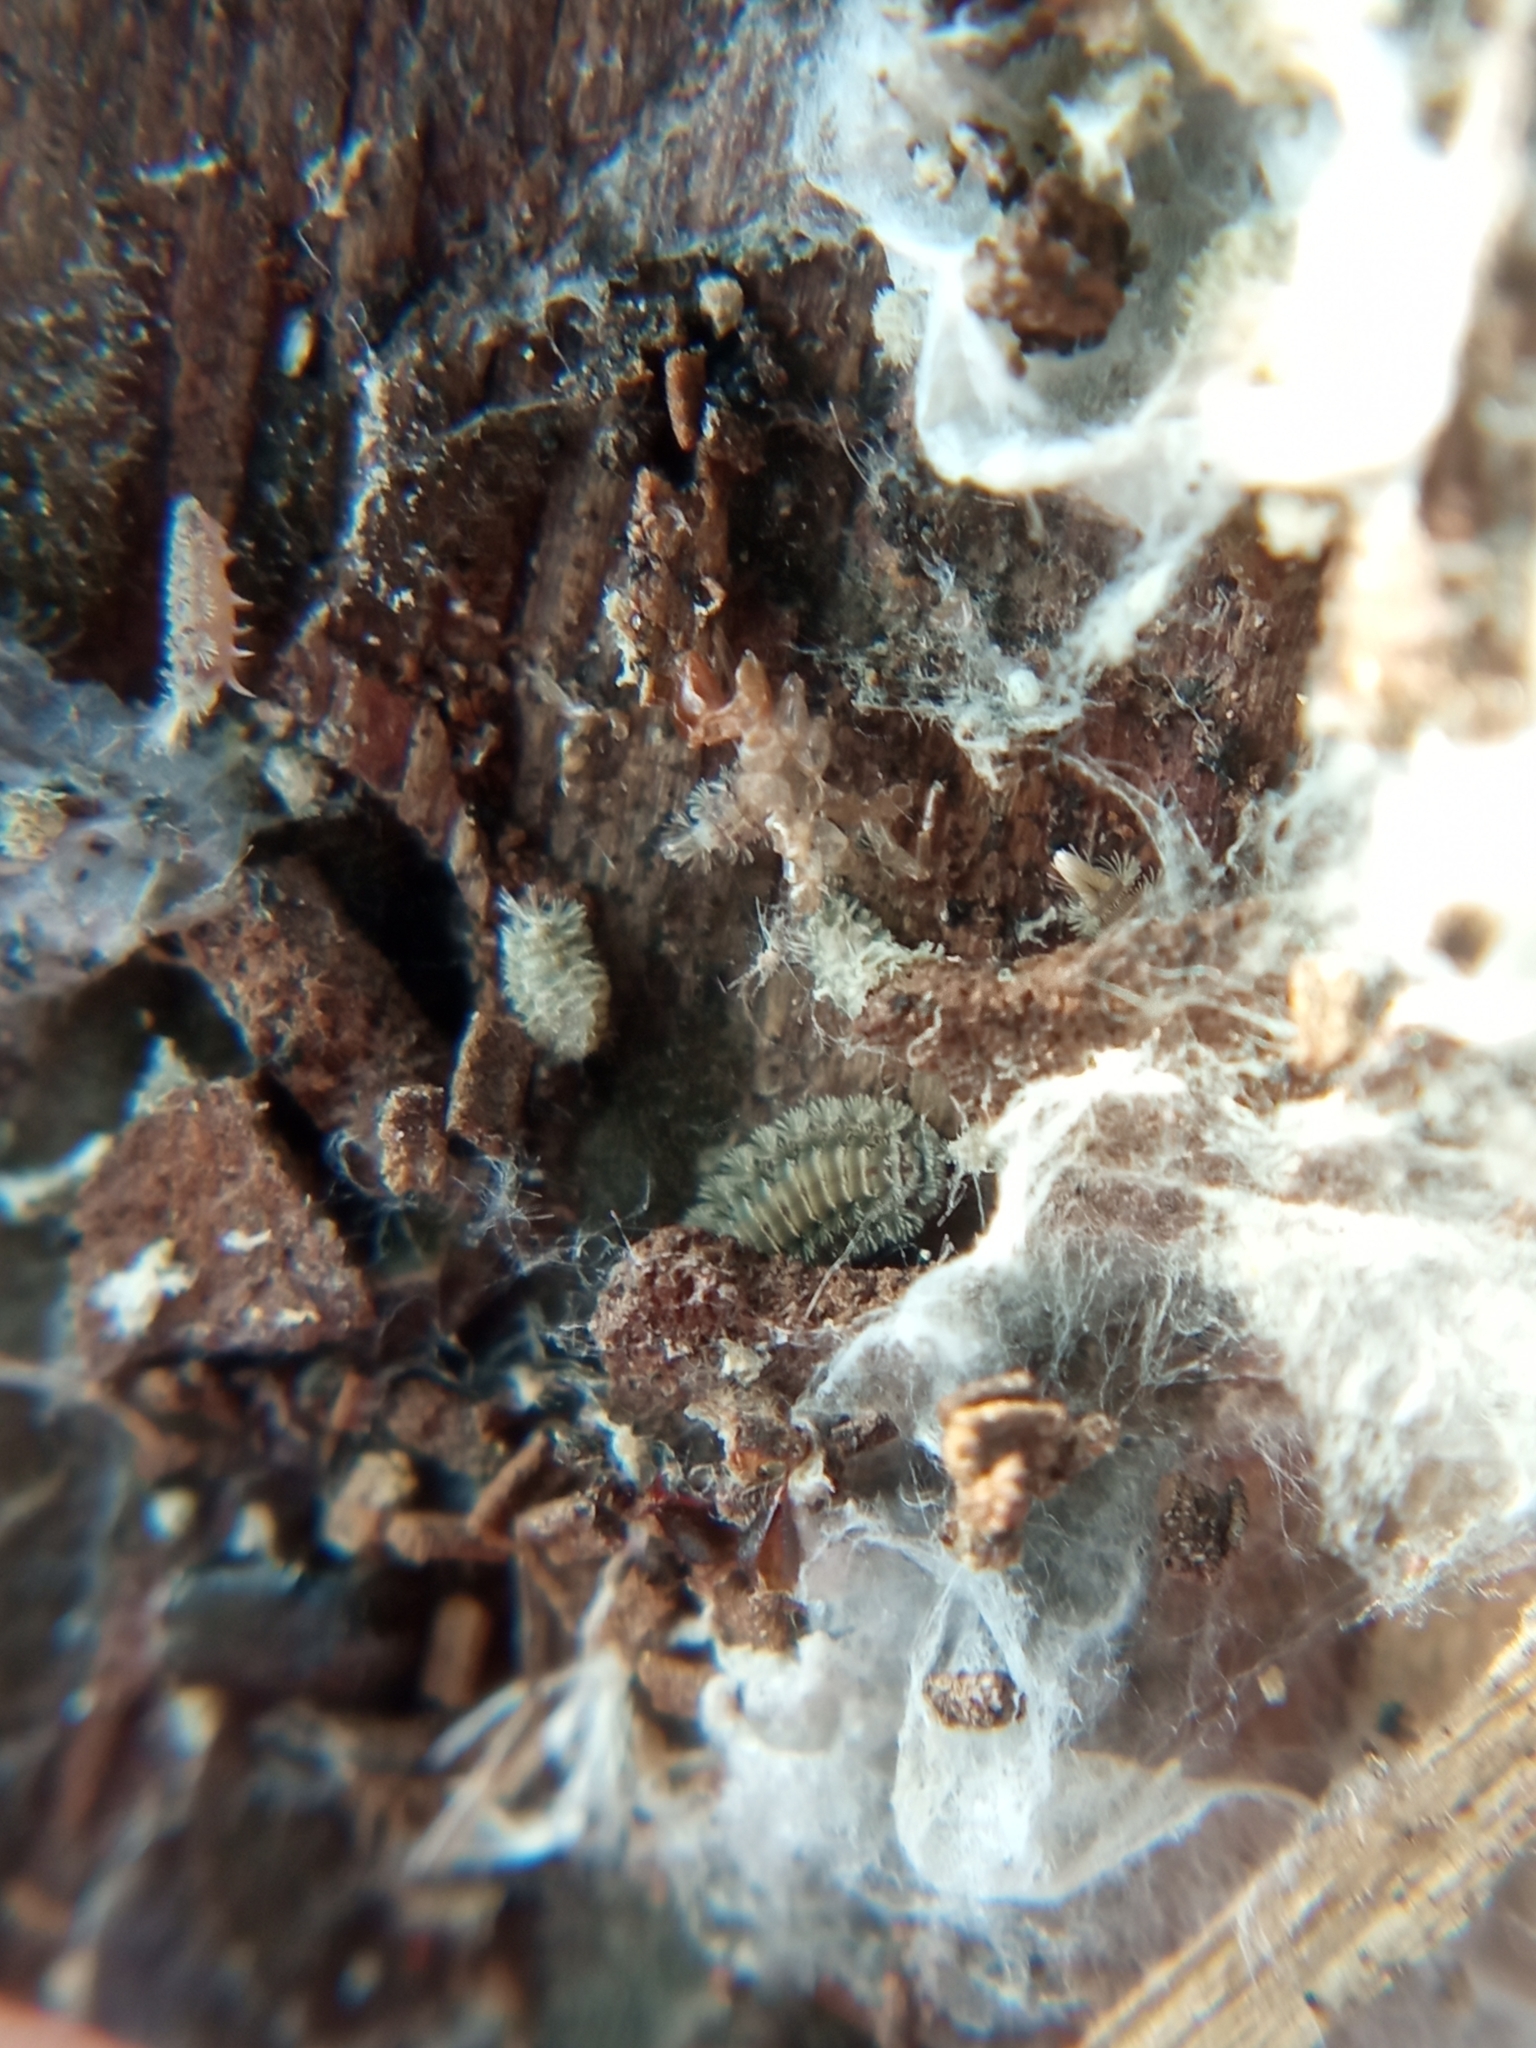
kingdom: Animalia
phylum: Arthropoda
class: Diplopoda
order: Polyxenida
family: Polyxenidae
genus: Polyxenus
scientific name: Polyxenus lagurus
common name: Bristly millipede
